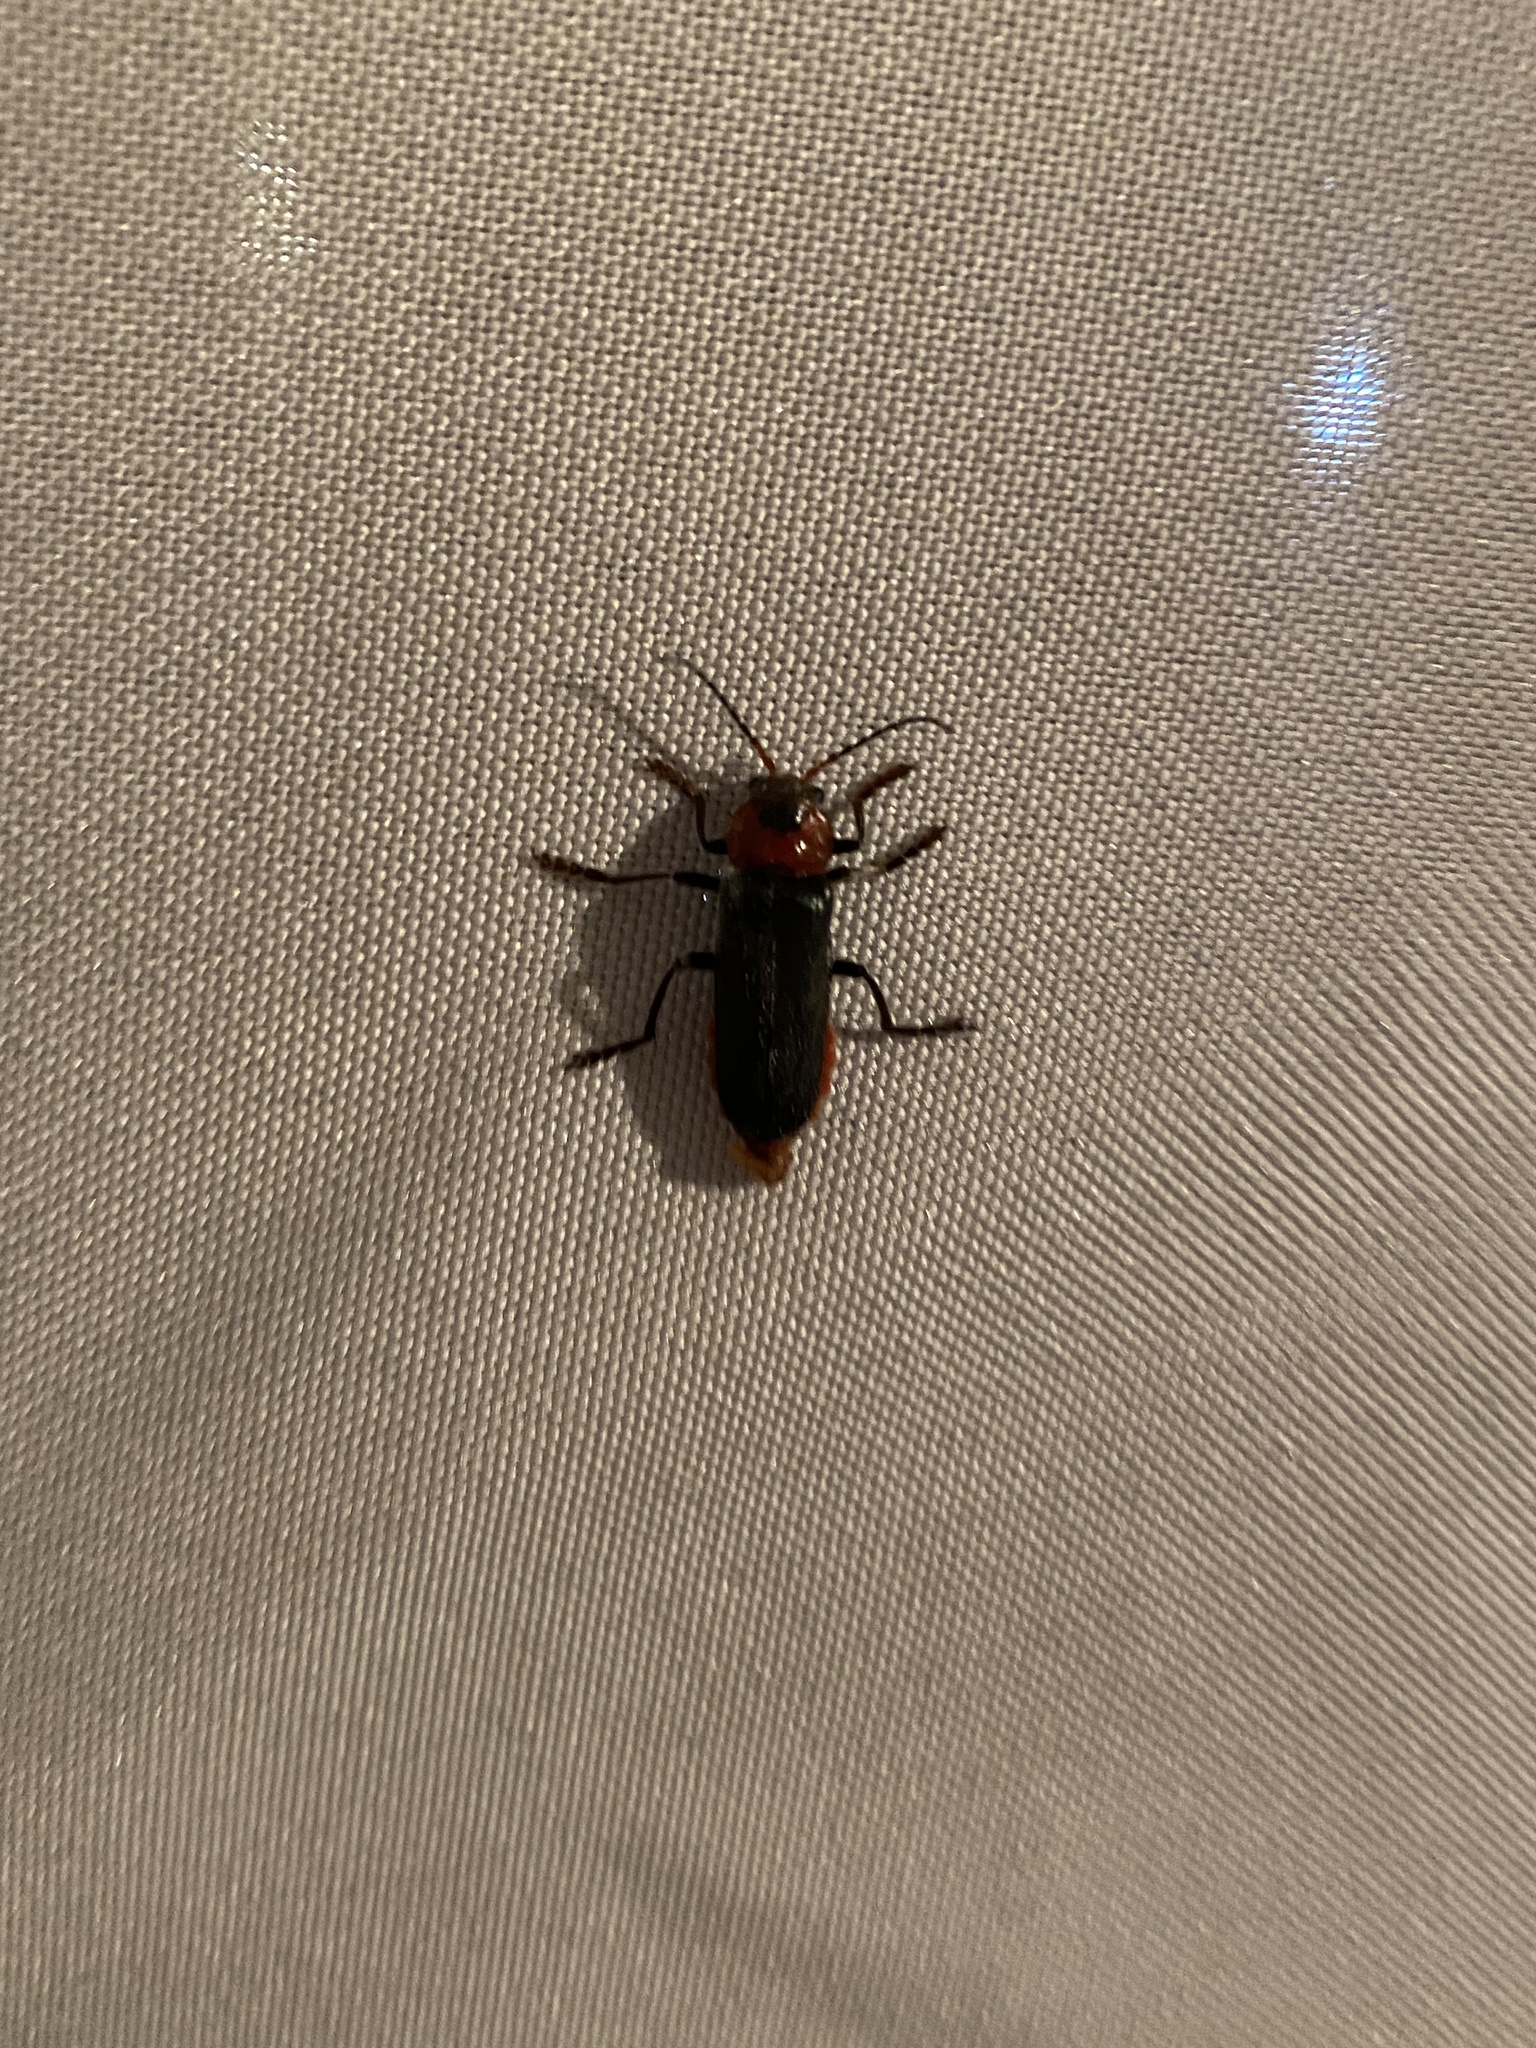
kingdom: Animalia
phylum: Arthropoda
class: Insecta
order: Coleoptera
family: Cantharidae
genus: Cantharis
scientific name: Cantharis fusca
